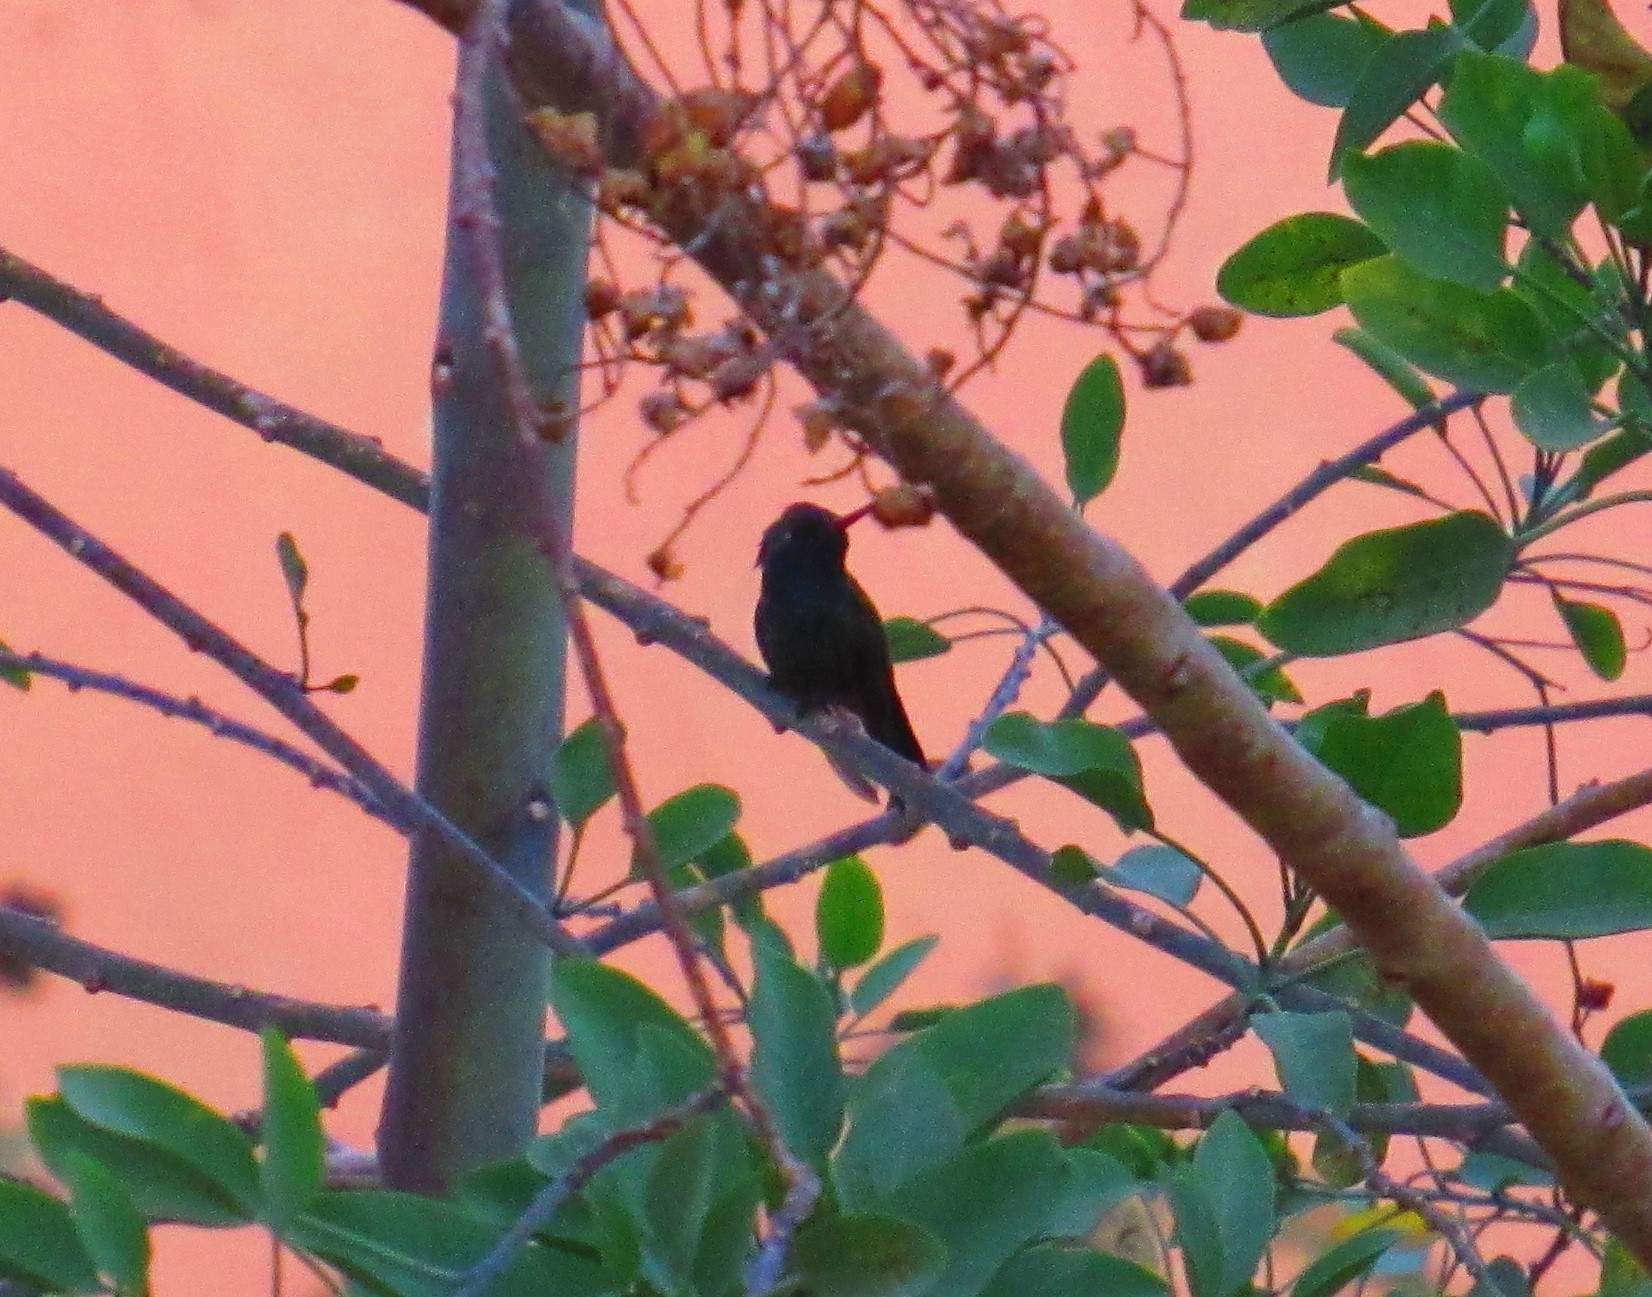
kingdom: Animalia
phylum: Chordata
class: Aves
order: Apodiformes
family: Trochilidae
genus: Cynanthus
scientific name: Cynanthus latirostris
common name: Broad-billed hummingbird
